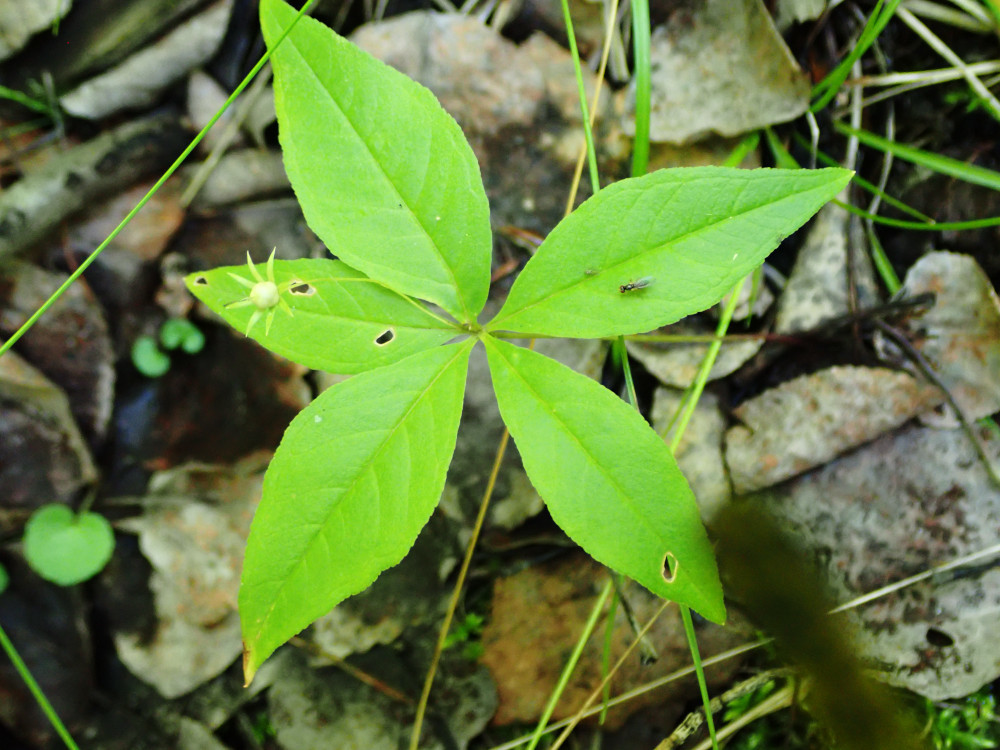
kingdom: Plantae
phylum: Tracheophyta
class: Magnoliopsida
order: Ericales
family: Primulaceae
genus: Lysimachia
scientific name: Lysimachia borealis
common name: American starflower
